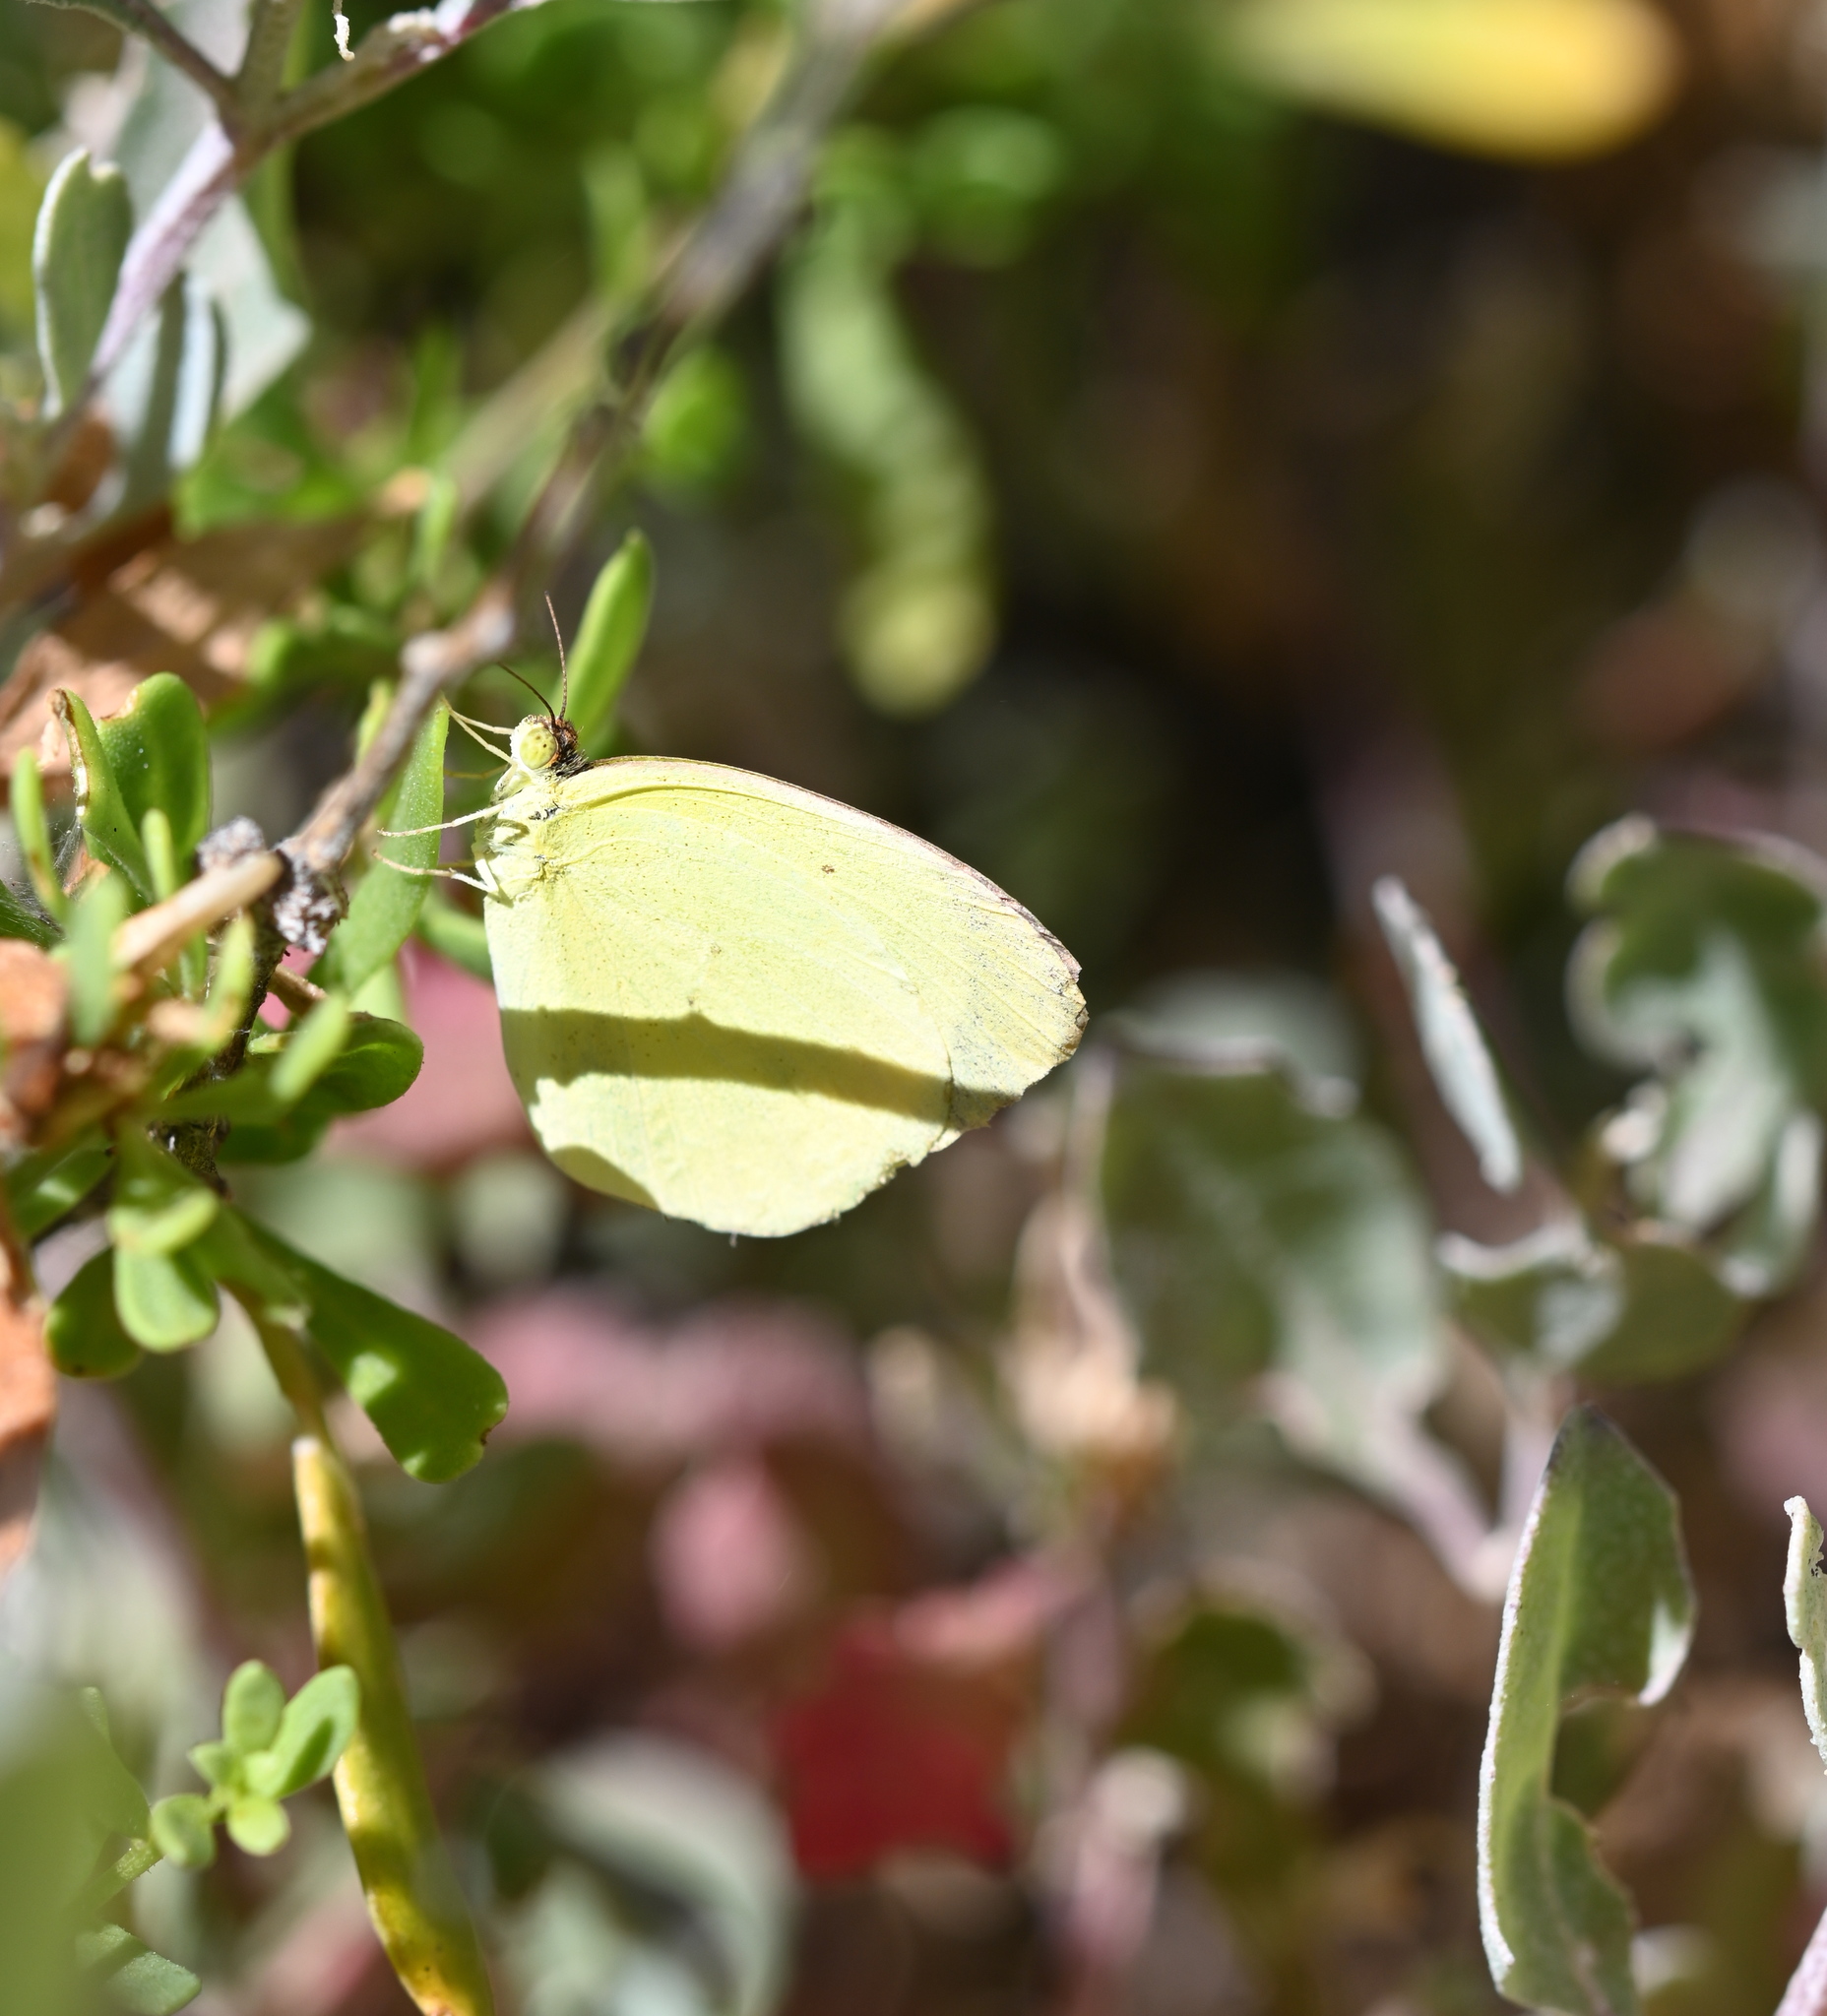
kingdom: Animalia
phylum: Arthropoda
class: Insecta
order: Lepidoptera
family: Pieridae
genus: Pyrisitia
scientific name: Pyrisitia nise
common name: Mimosa yellow
